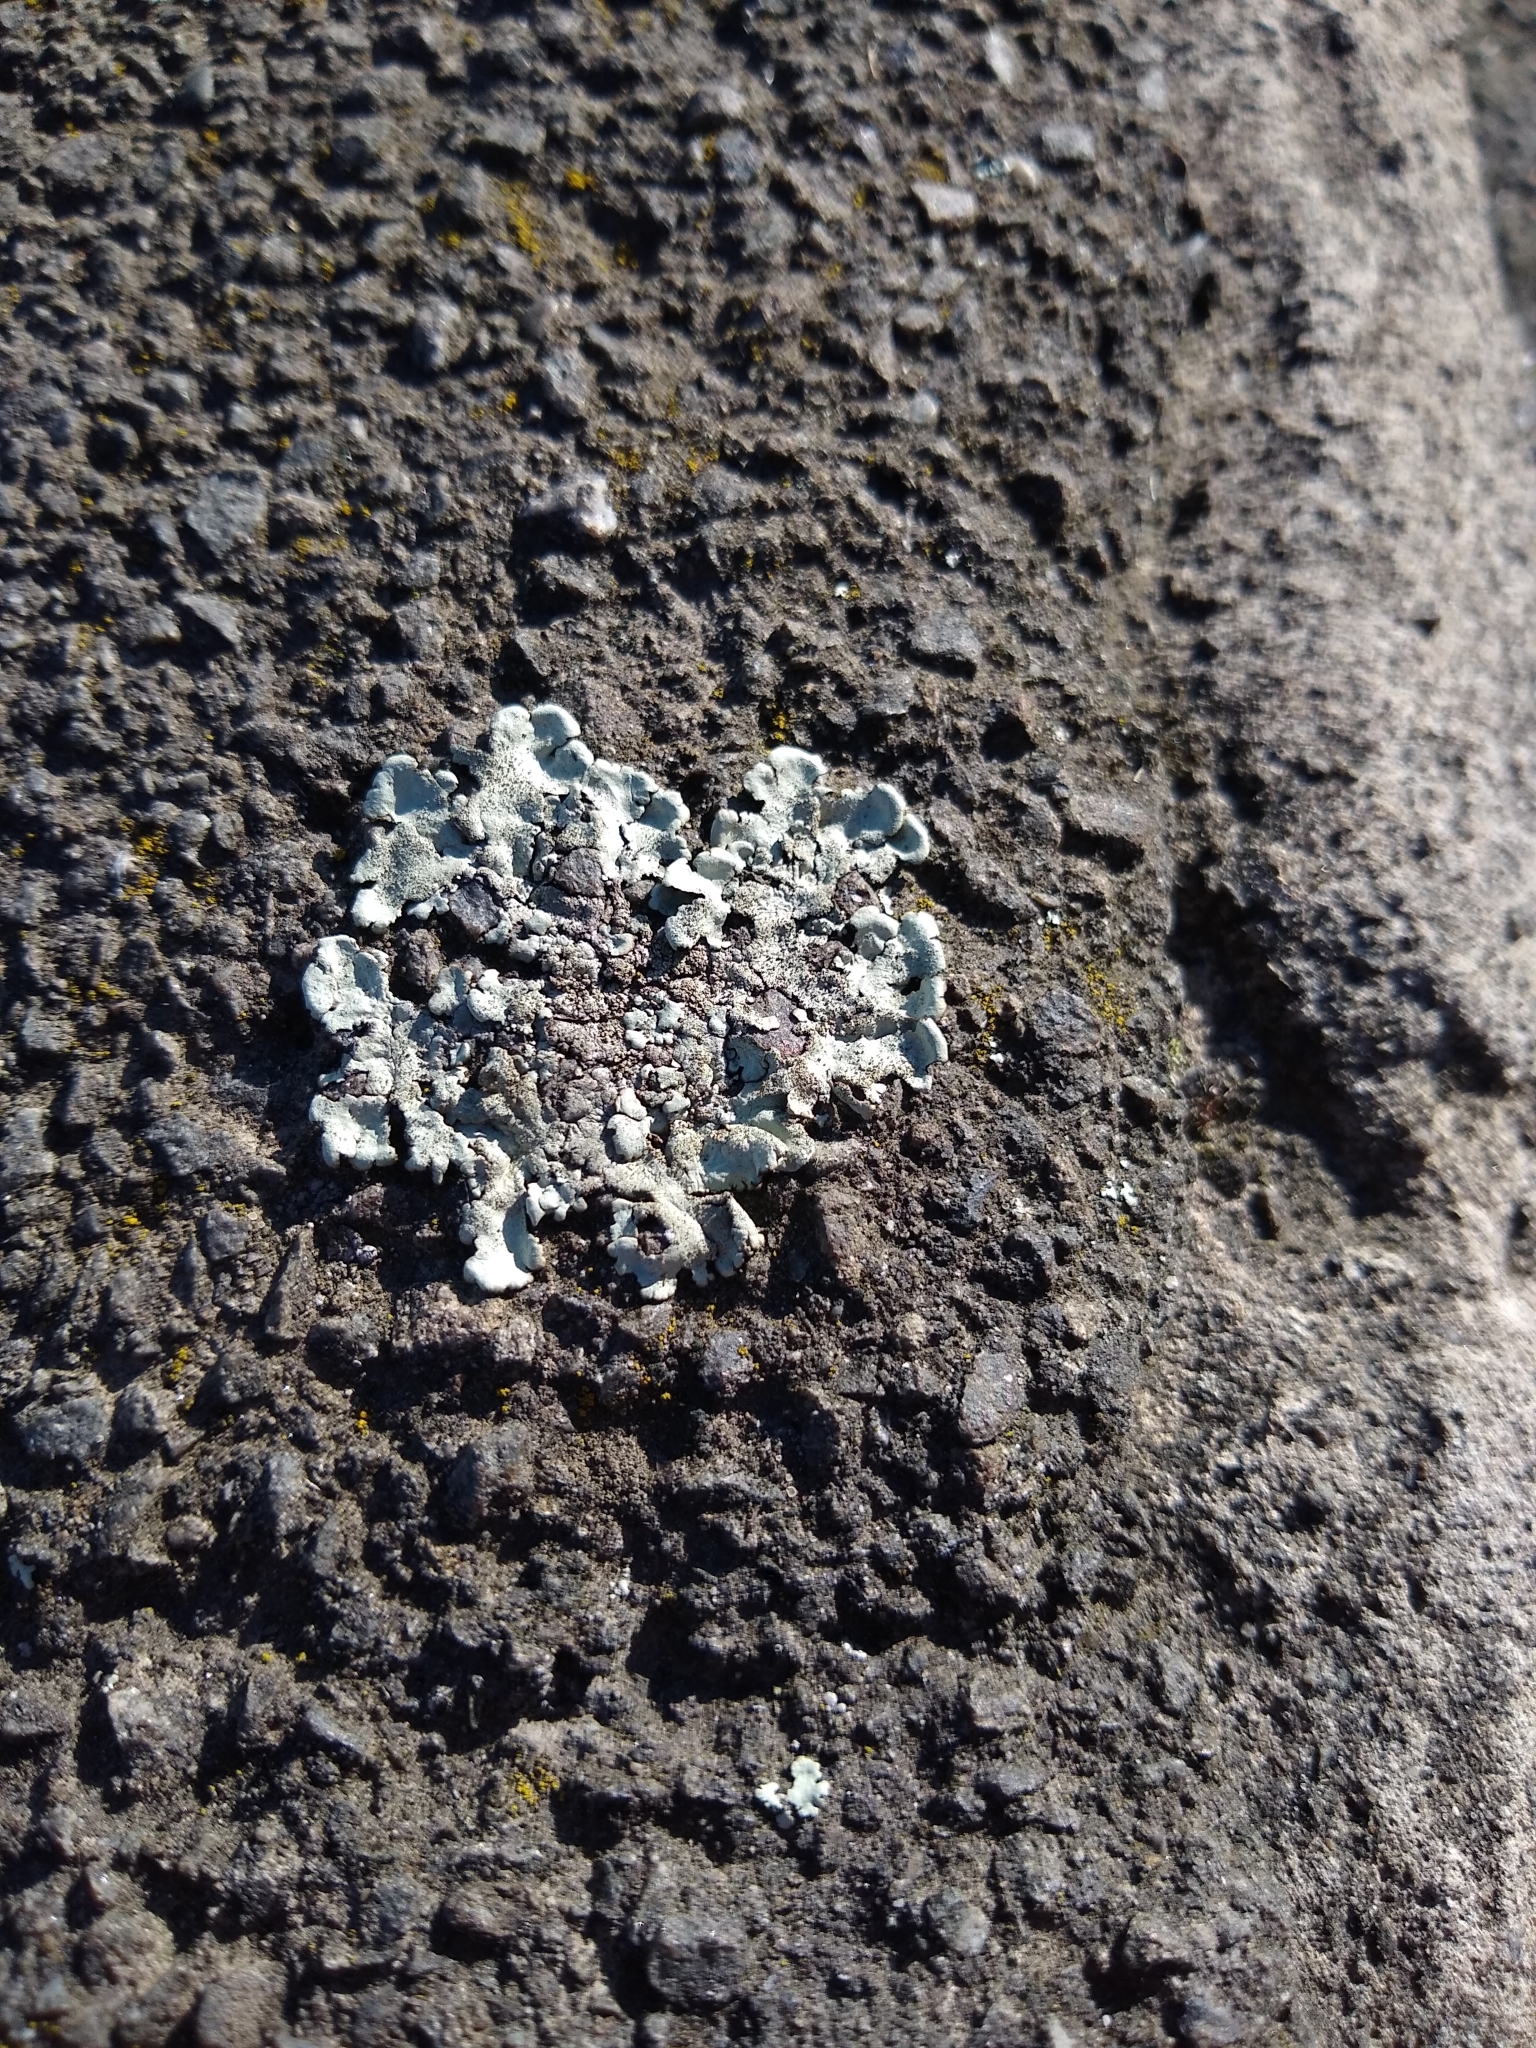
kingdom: Fungi
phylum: Ascomycota
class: Lecanoromycetes
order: Lecanorales
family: Parmeliaceae
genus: Flavoparmelia
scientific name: Flavoparmelia caperata
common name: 40-mile per hour lichen
